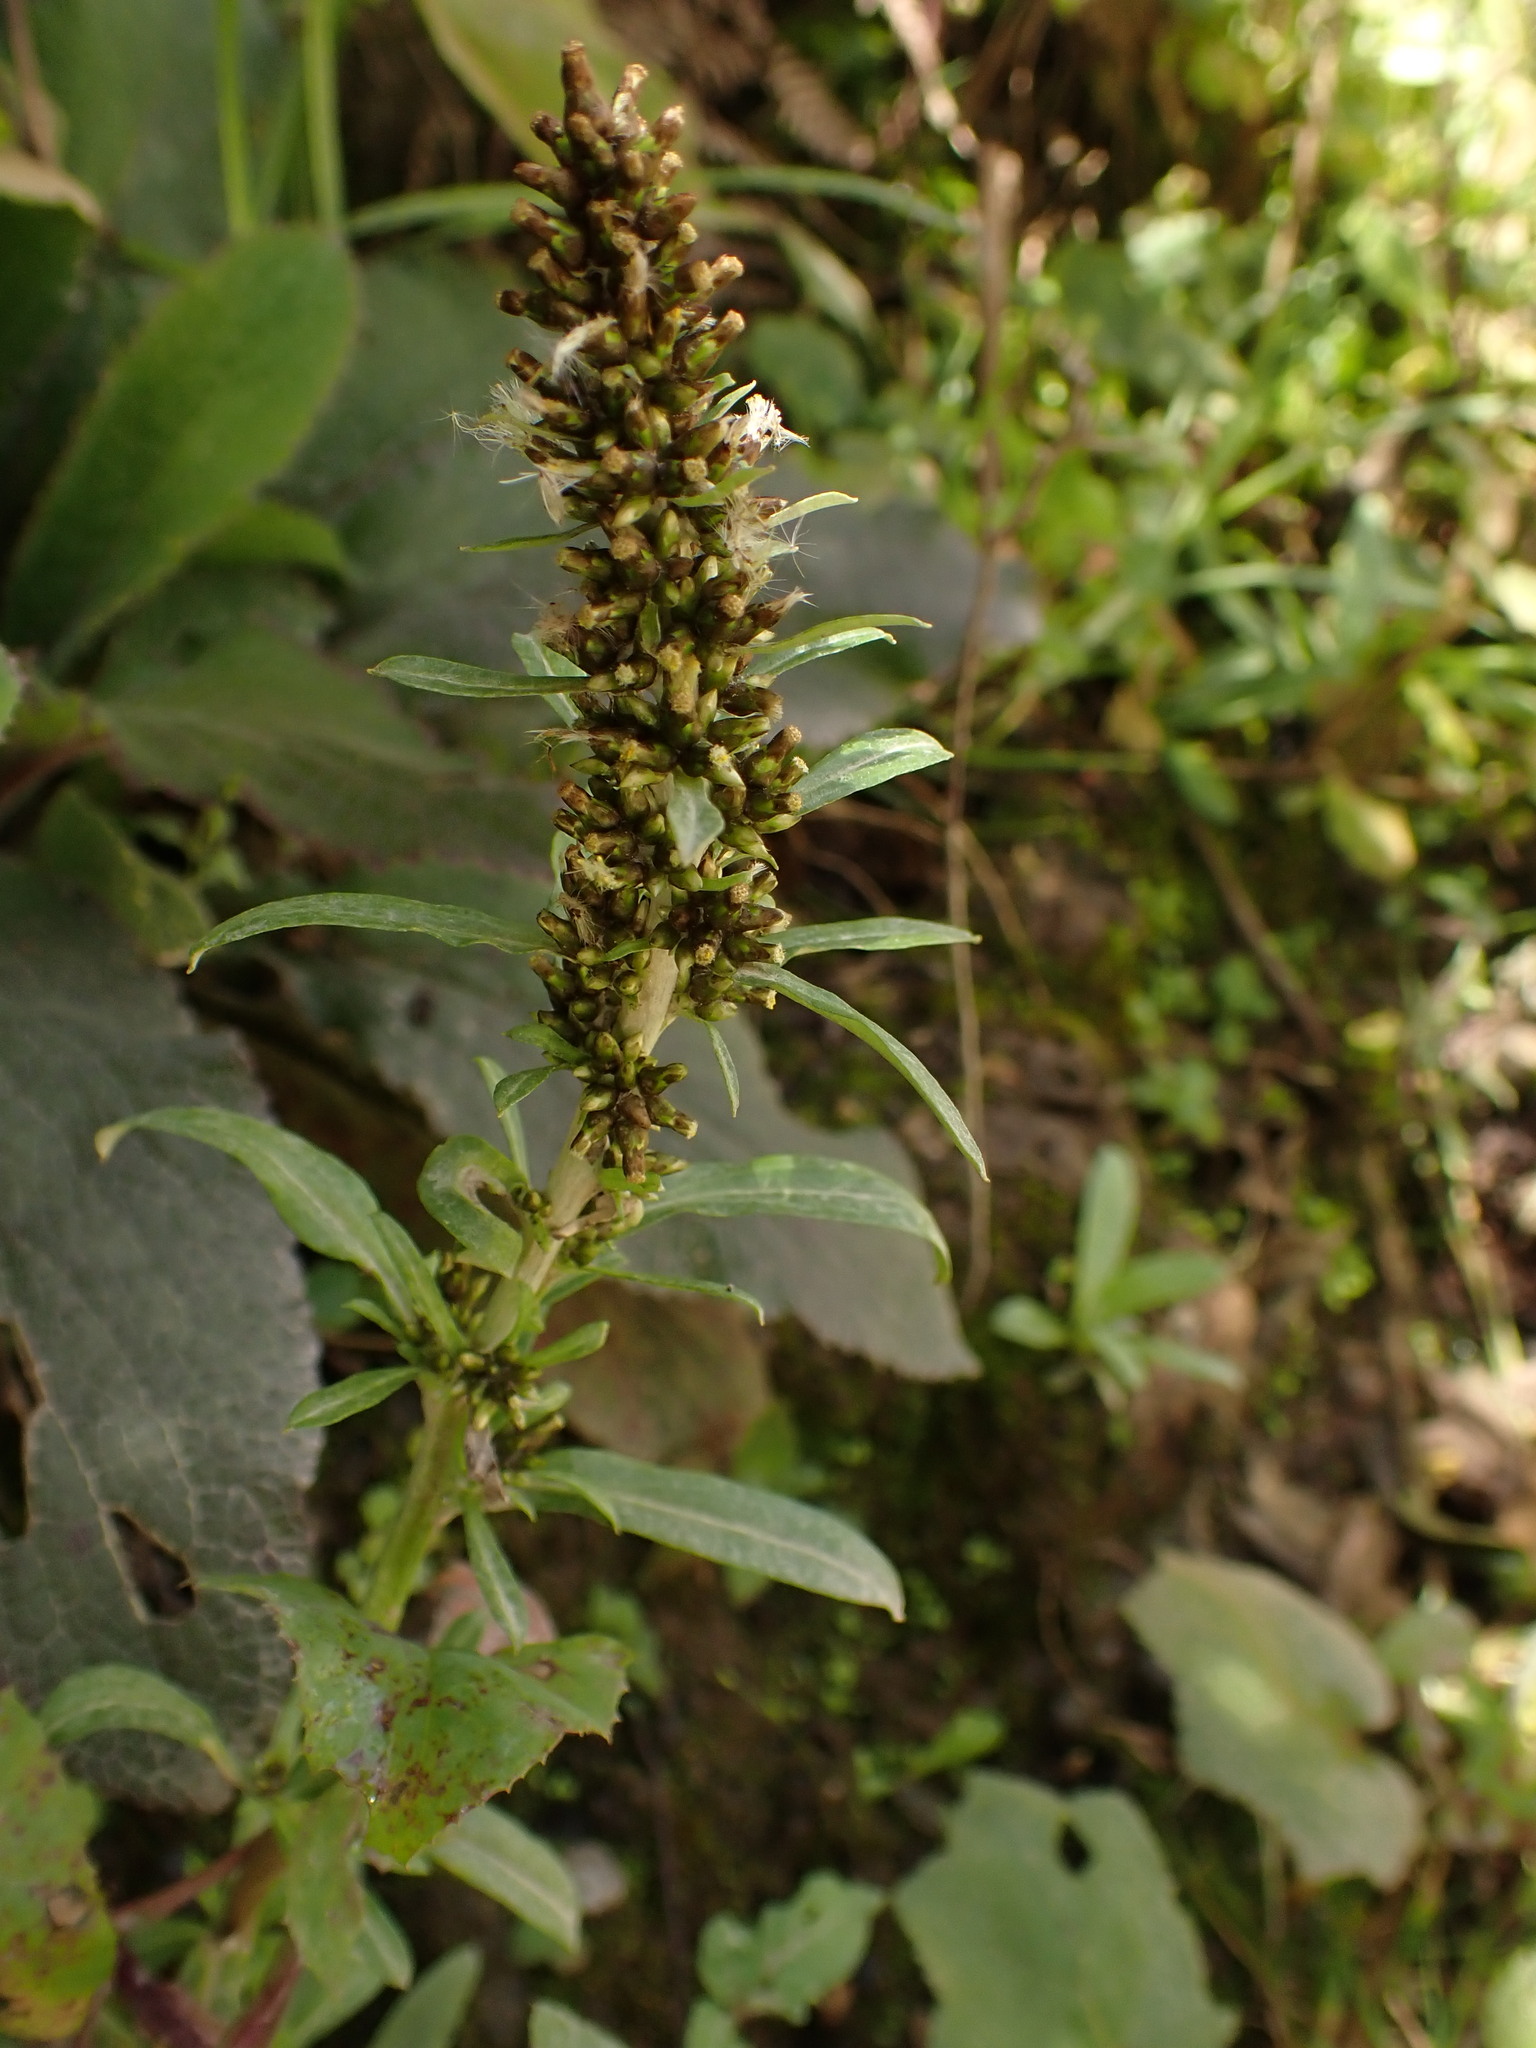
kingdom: Plantae
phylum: Tracheophyta
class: Magnoliopsida
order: Asterales
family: Asteraceae
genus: Gamochaeta
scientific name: Gamochaeta americana
